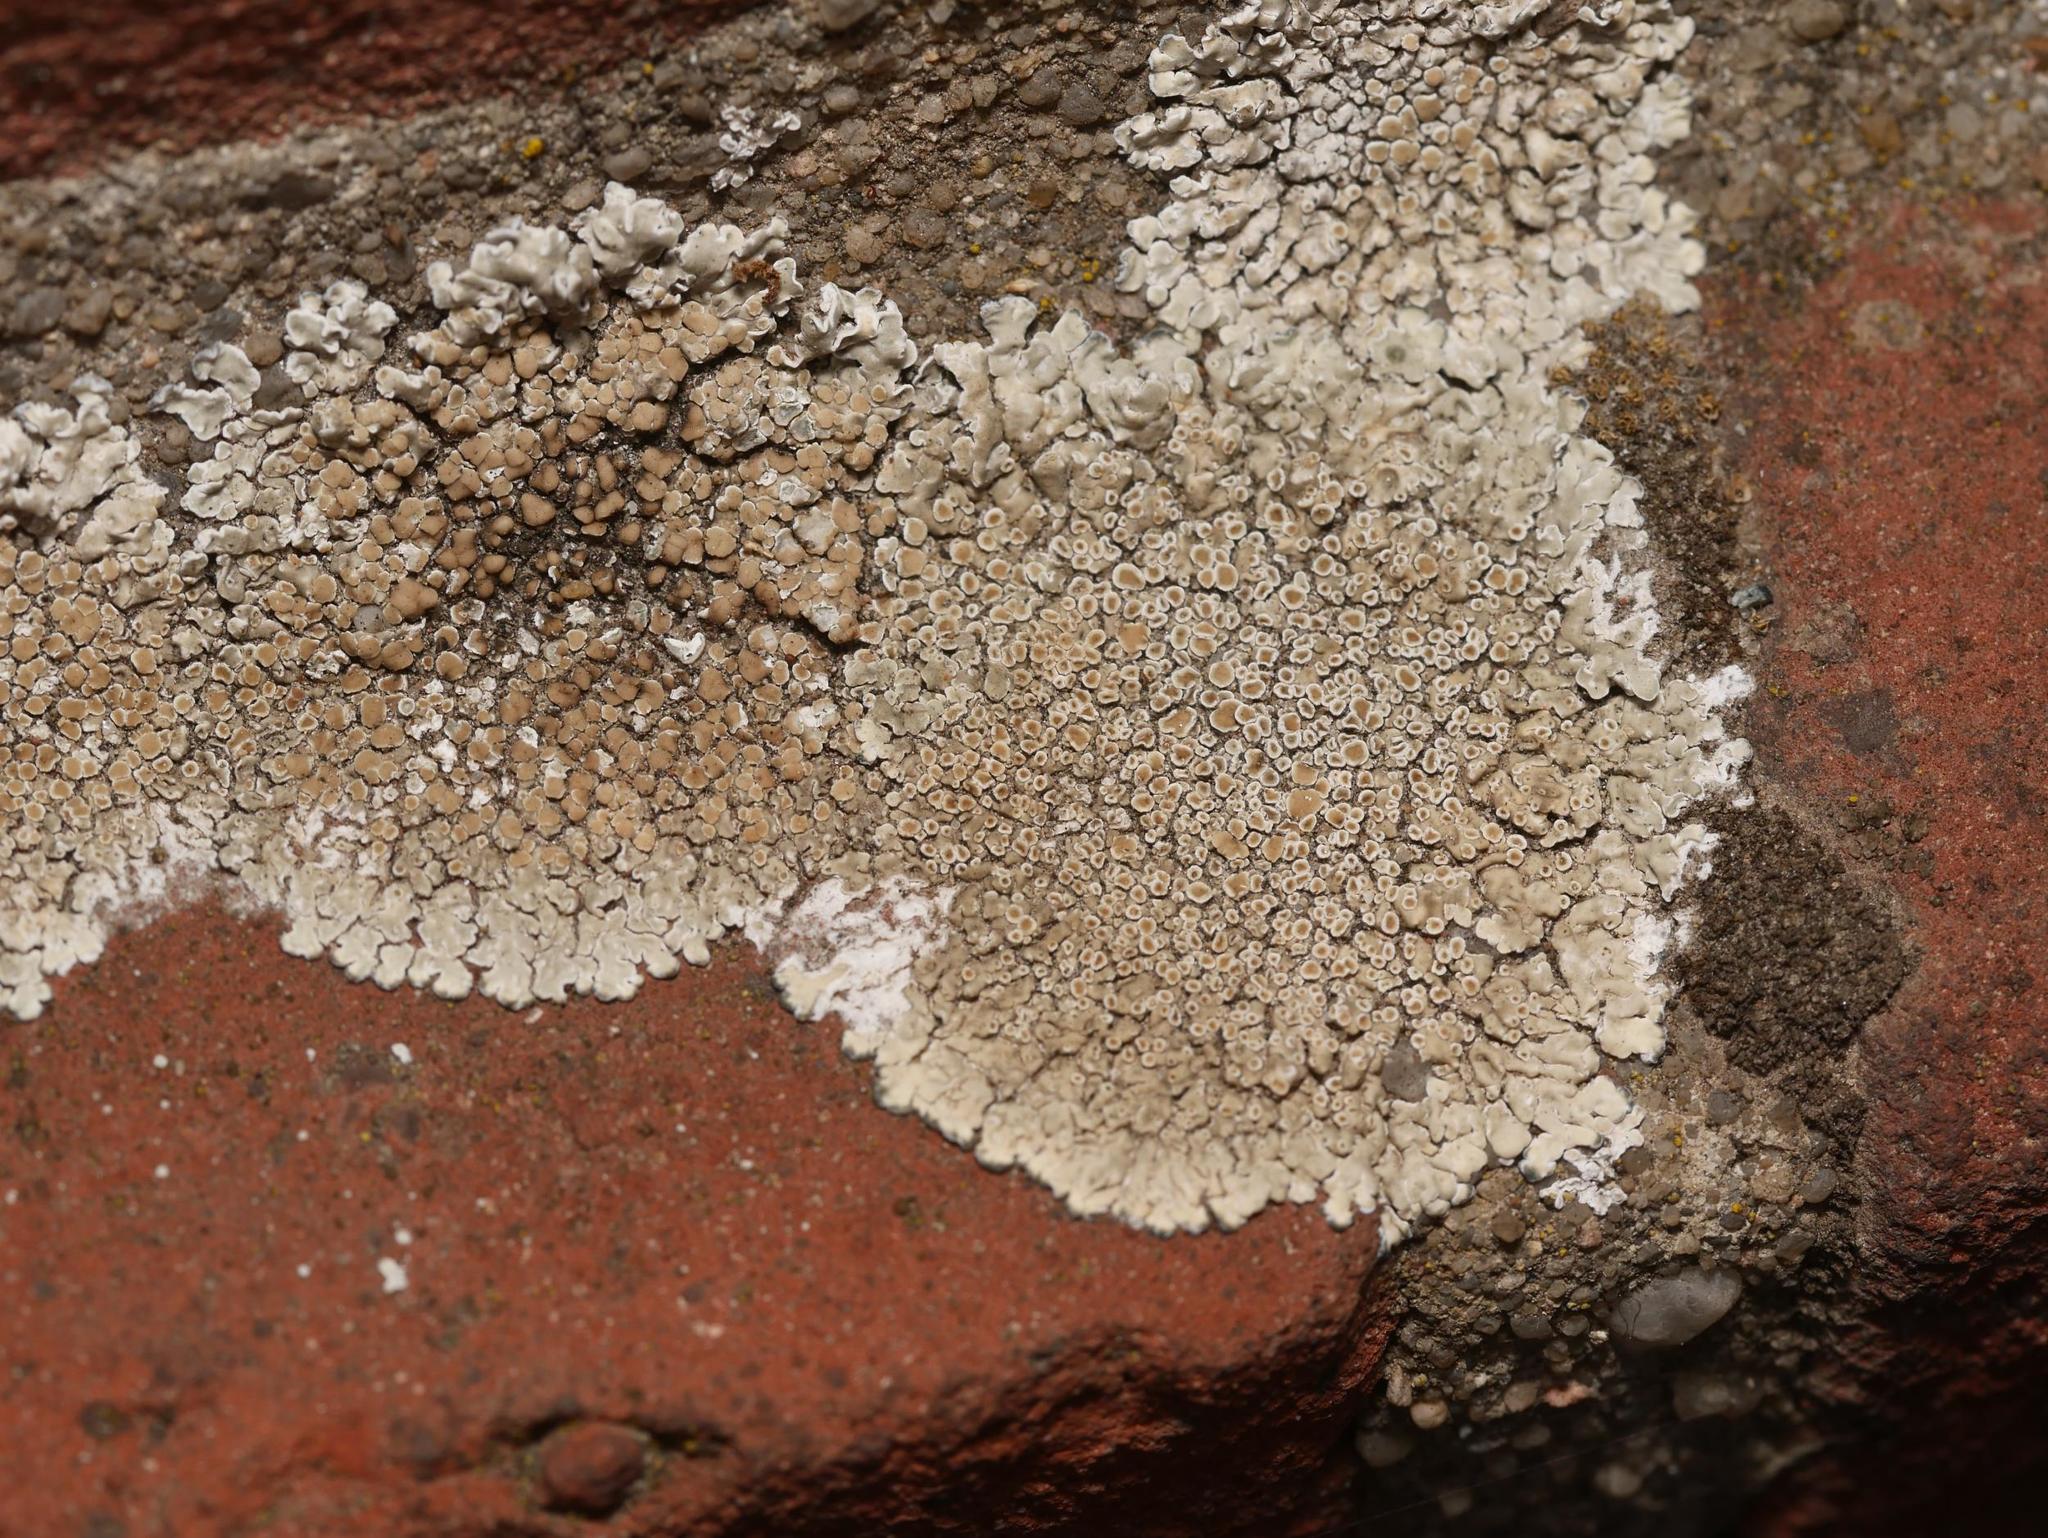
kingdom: Fungi
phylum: Ascomycota
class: Lecanoromycetes
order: Lecanorales
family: Lecanoraceae
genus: Protoparmeliopsis
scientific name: Protoparmeliopsis muralis
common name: Stonewall rim lichen
